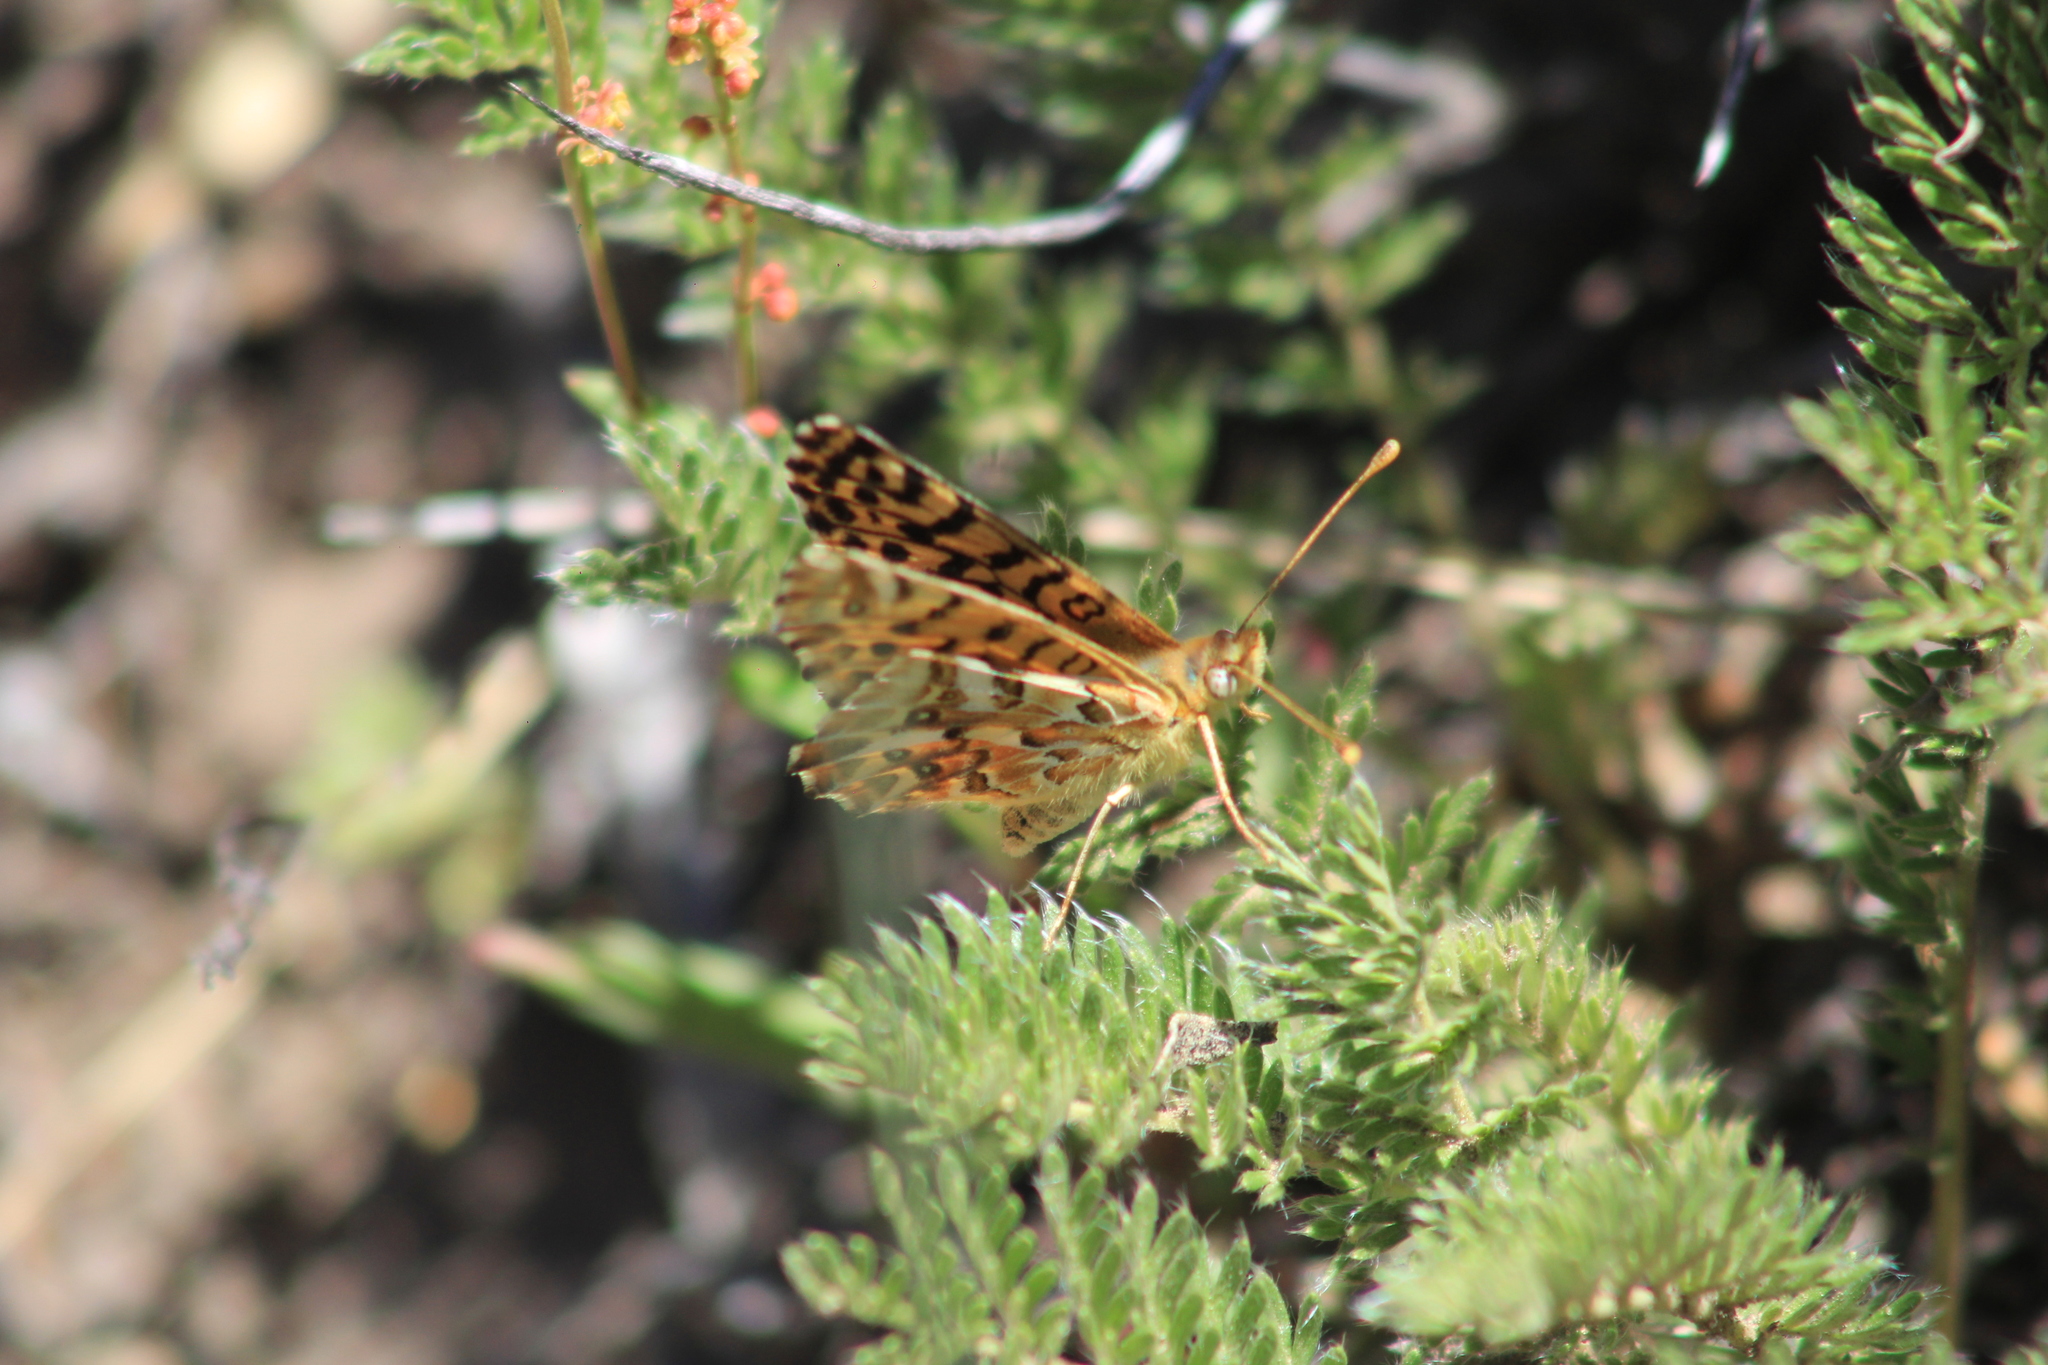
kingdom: Animalia
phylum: Arthropoda
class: Insecta
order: Lepidoptera
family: Nymphalidae
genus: Issoria
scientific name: Issoria Yramea lathonoides
